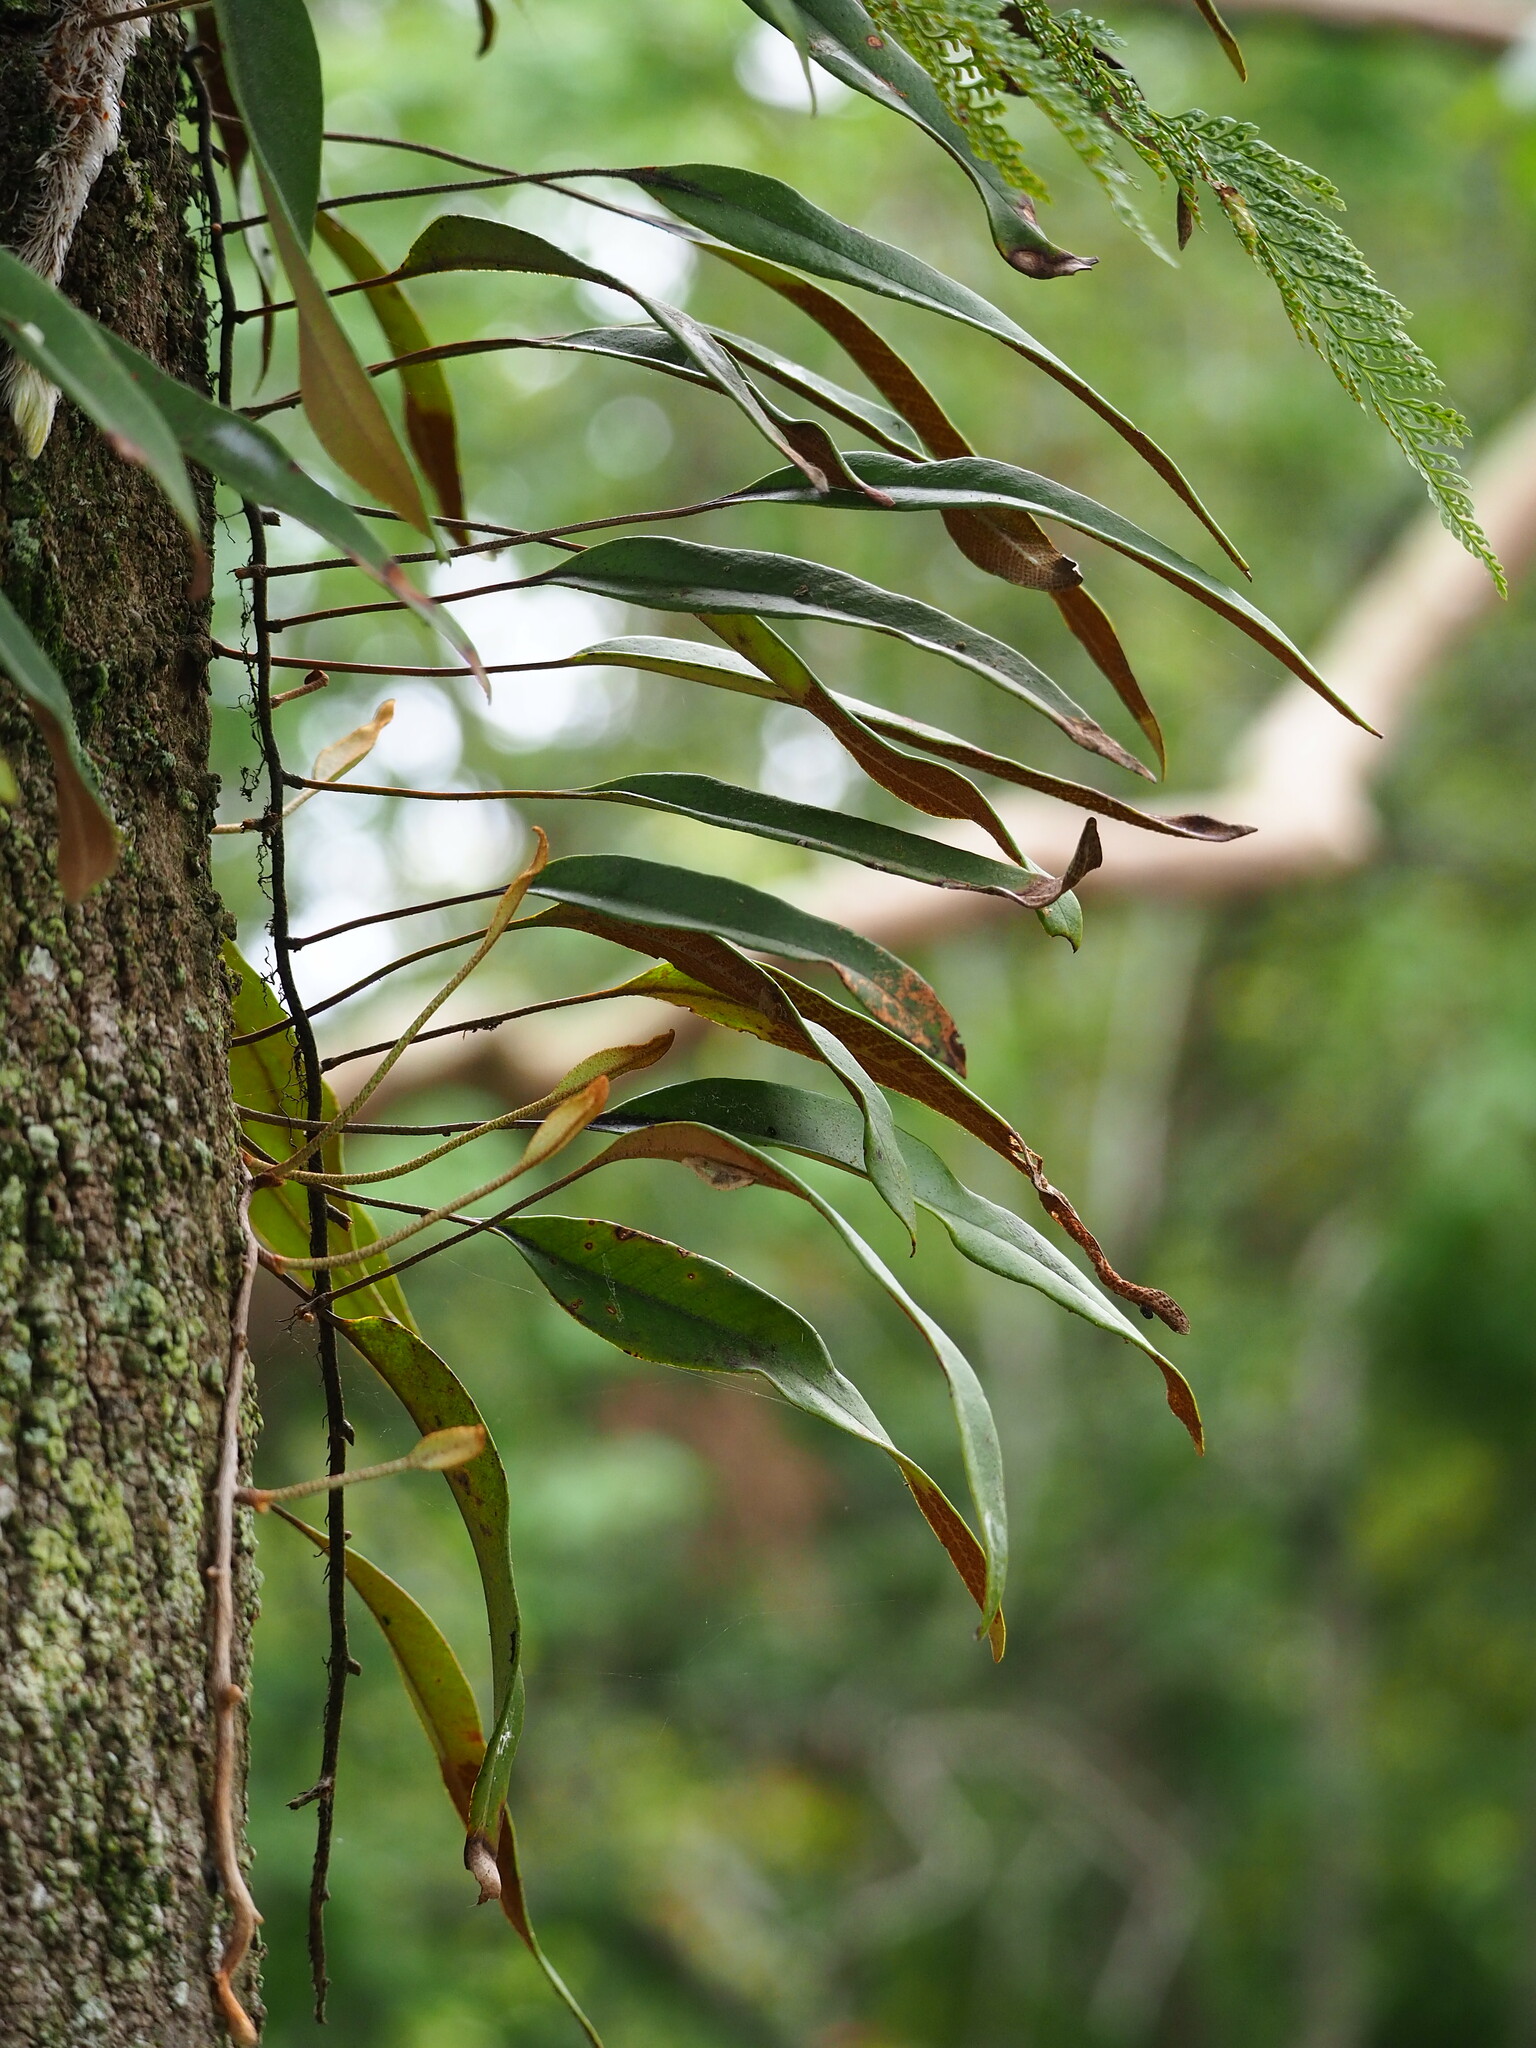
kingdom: Plantae
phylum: Tracheophyta
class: Polypodiopsida
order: Polypodiales
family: Polypodiaceae
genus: Pyrrosia
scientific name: Pyrrosia lingua
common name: Felt fern
